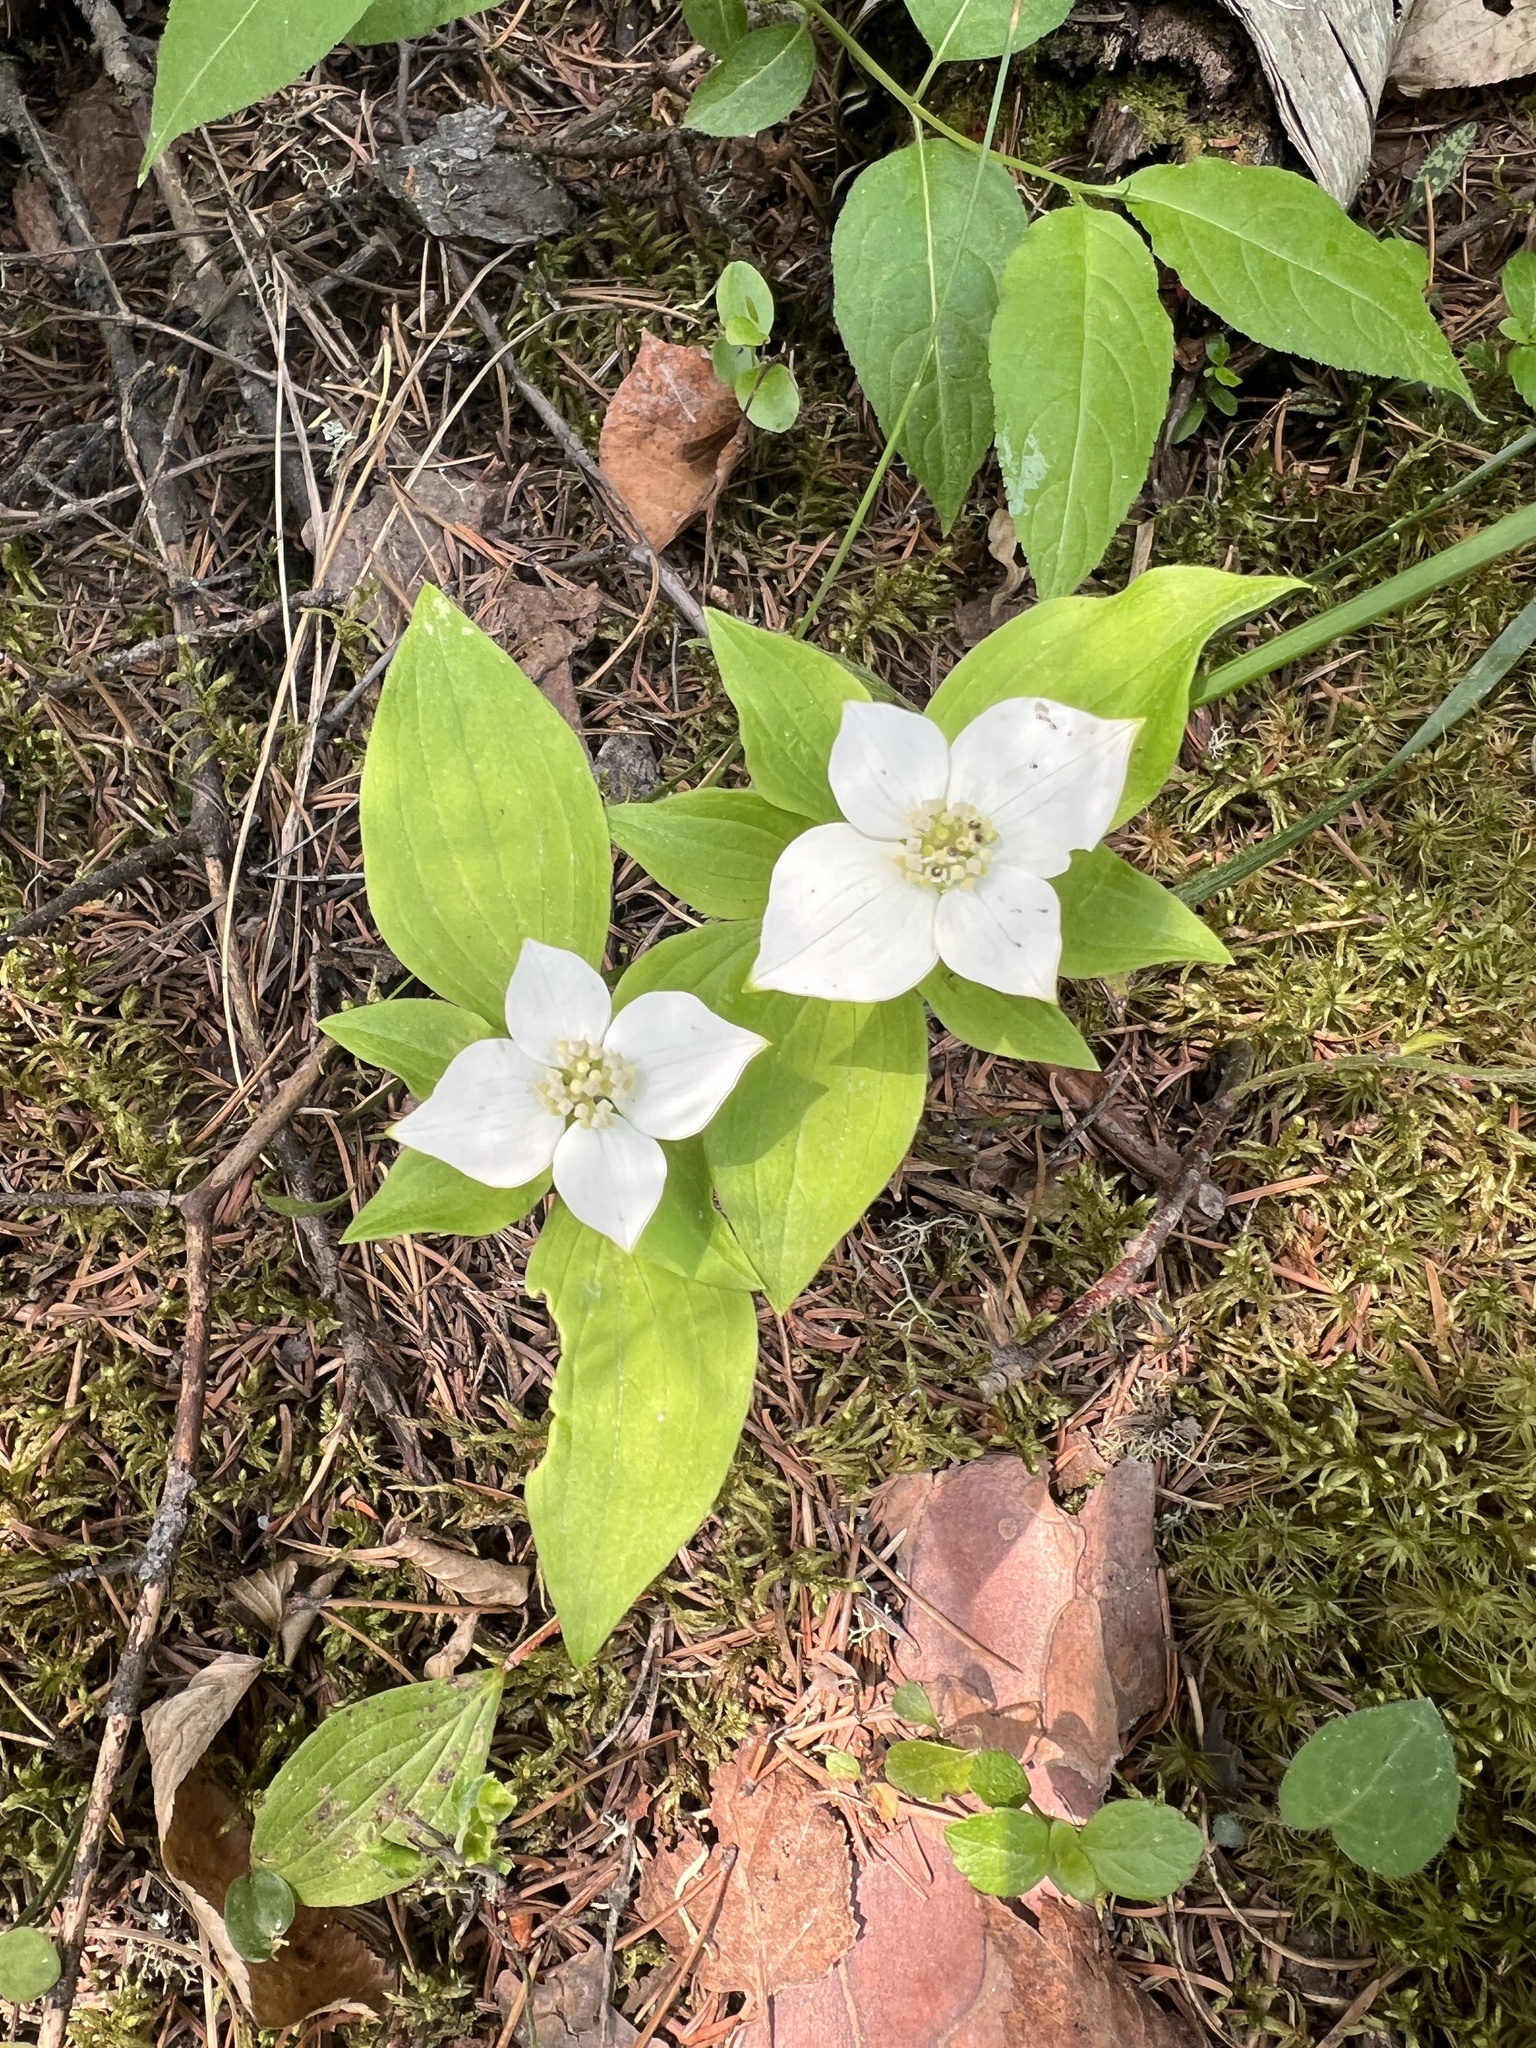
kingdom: Plantae
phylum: Tracheophyta
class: Magnoliopsida
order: Cornales
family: Cornaceae
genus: Cornus
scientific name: Cornus canadensis
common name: Creeping dogwood
